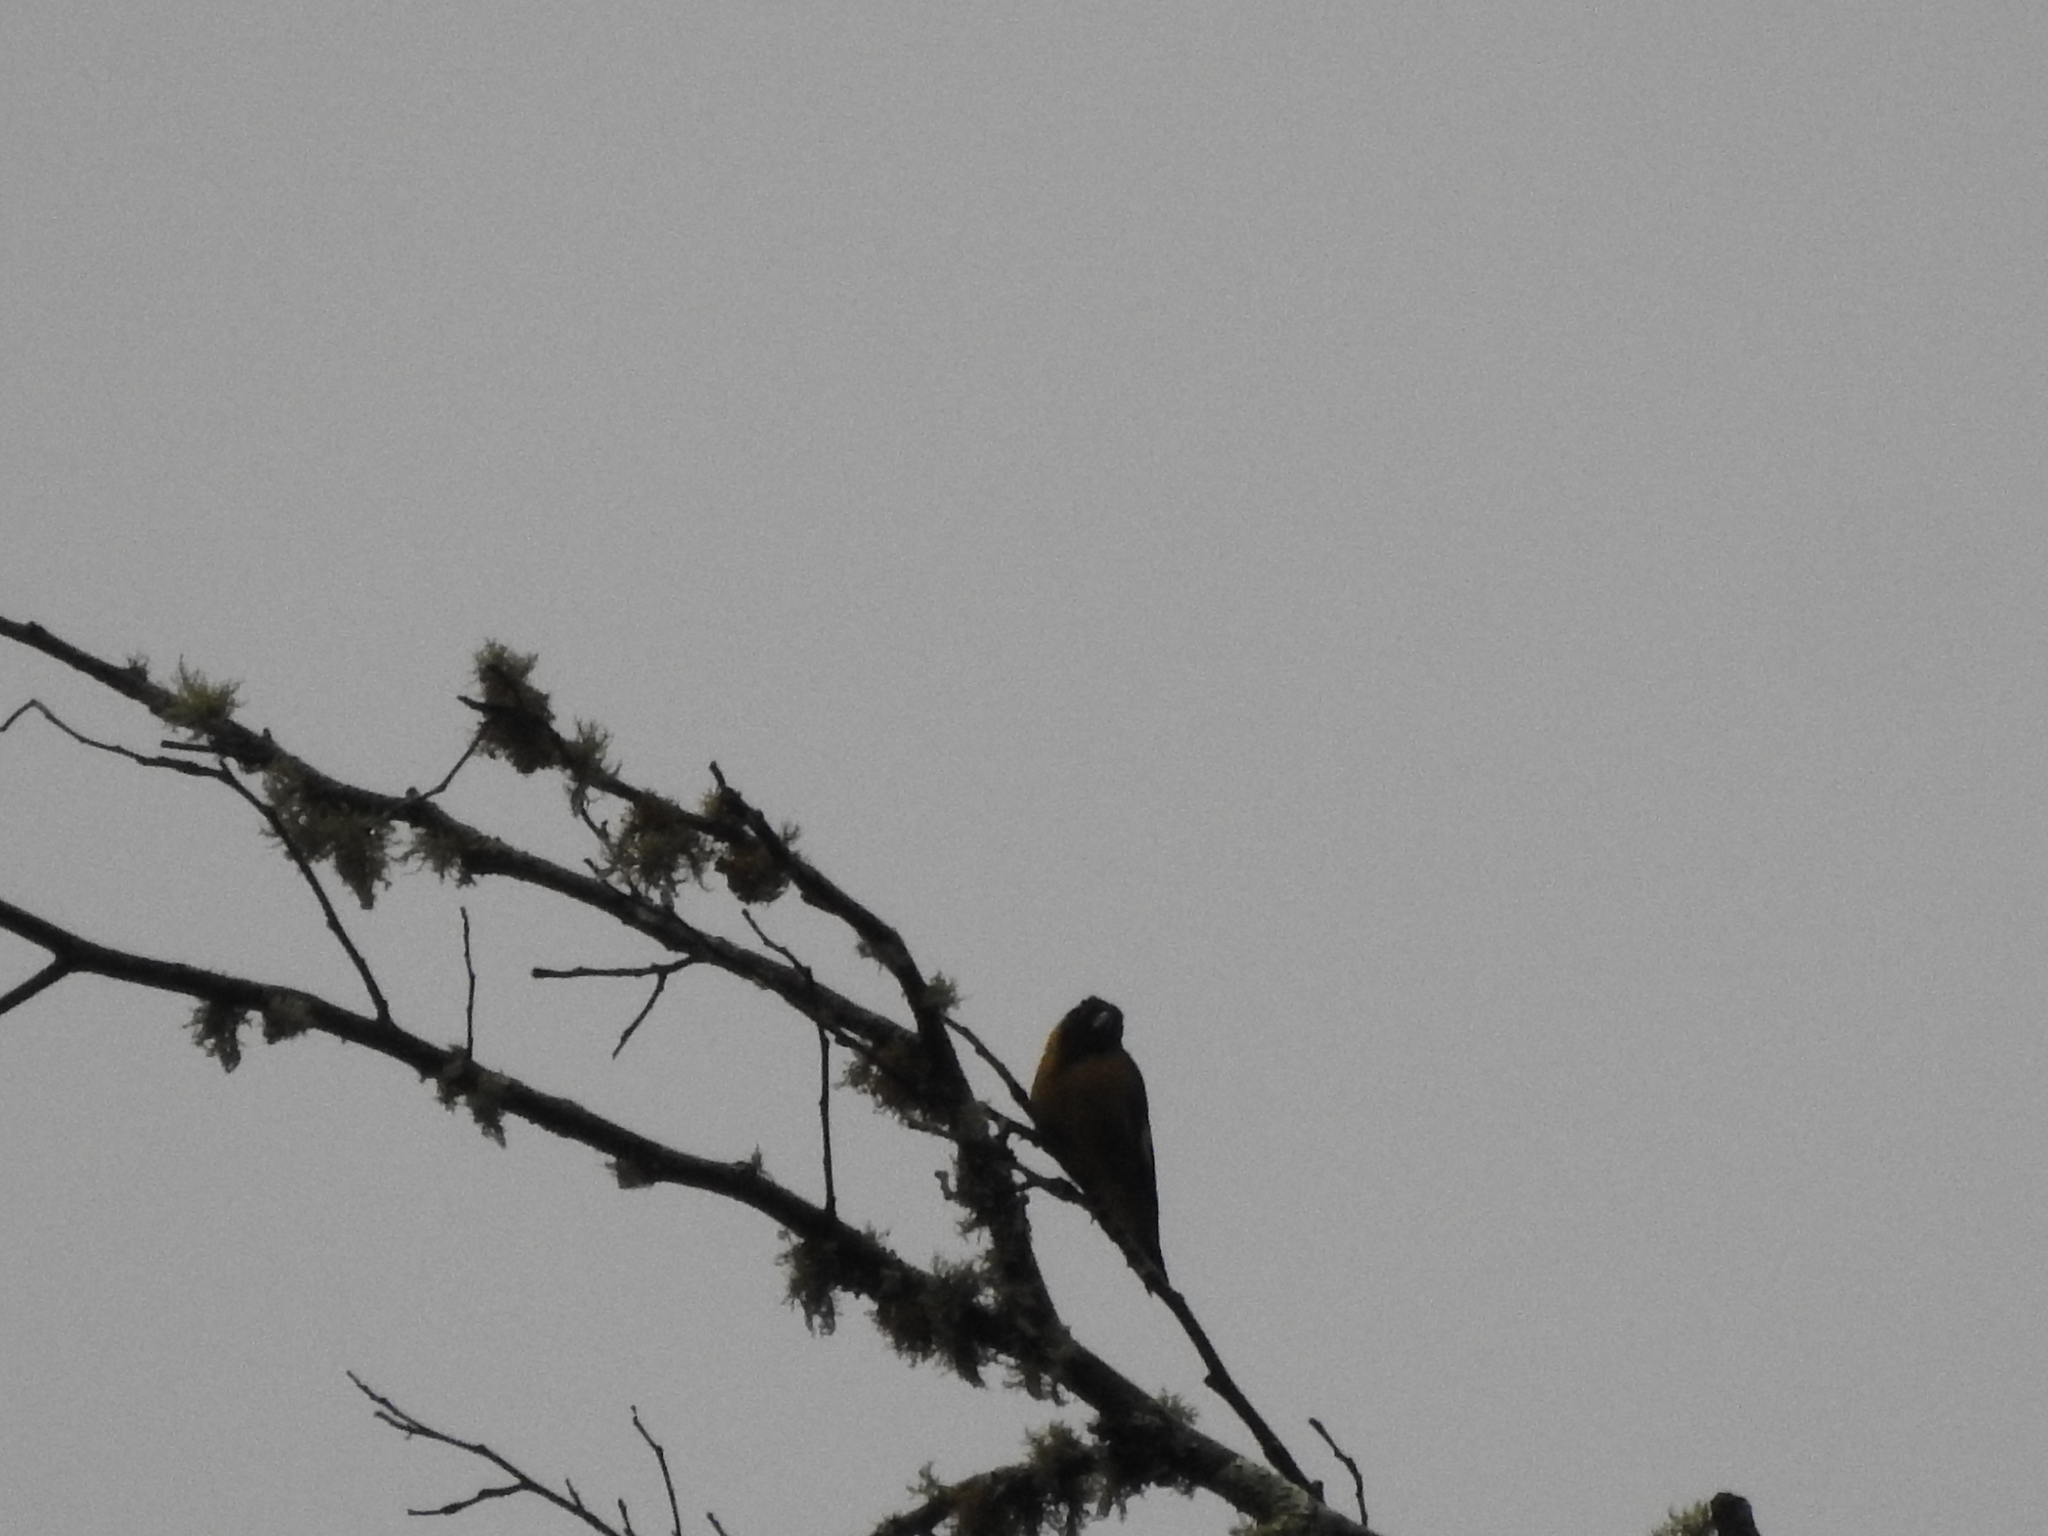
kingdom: Animalia
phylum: Chordata
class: Aves
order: Passeriformes
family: Fringillidae
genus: Spinus
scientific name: Spinus notatus
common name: Black-headed siskin
